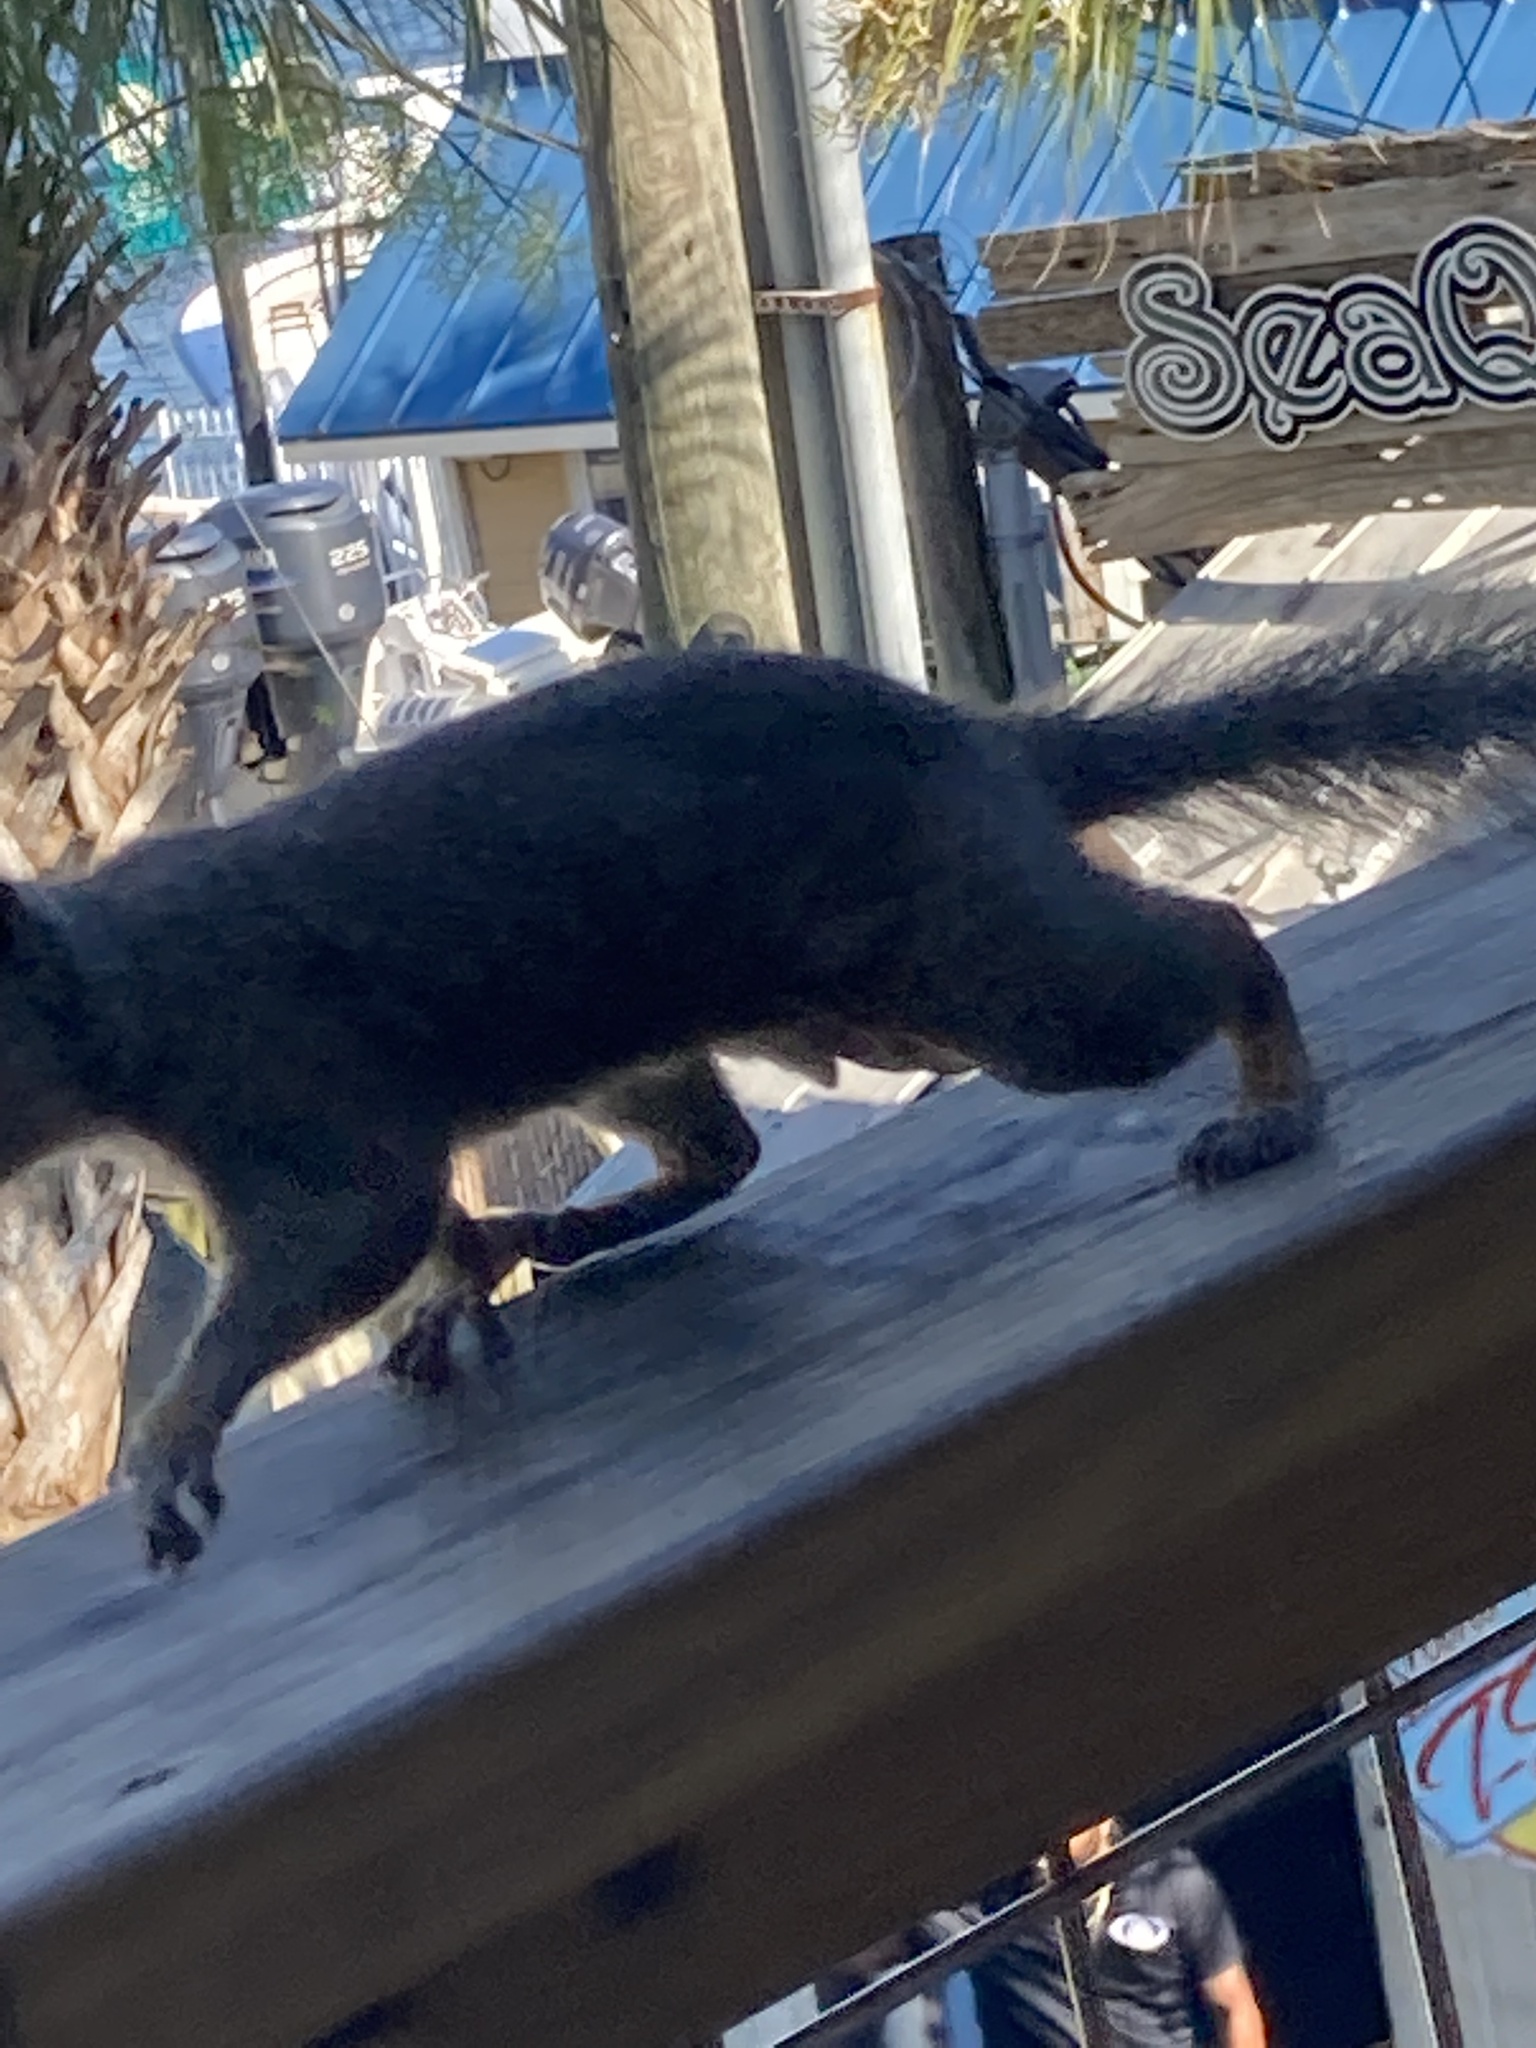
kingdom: Animalia
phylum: Chordata
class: Mammalia
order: Rodentia
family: Sciuridae
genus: Sciurus
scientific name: Sciurus carolinensis
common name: Eastern gray squirrel
